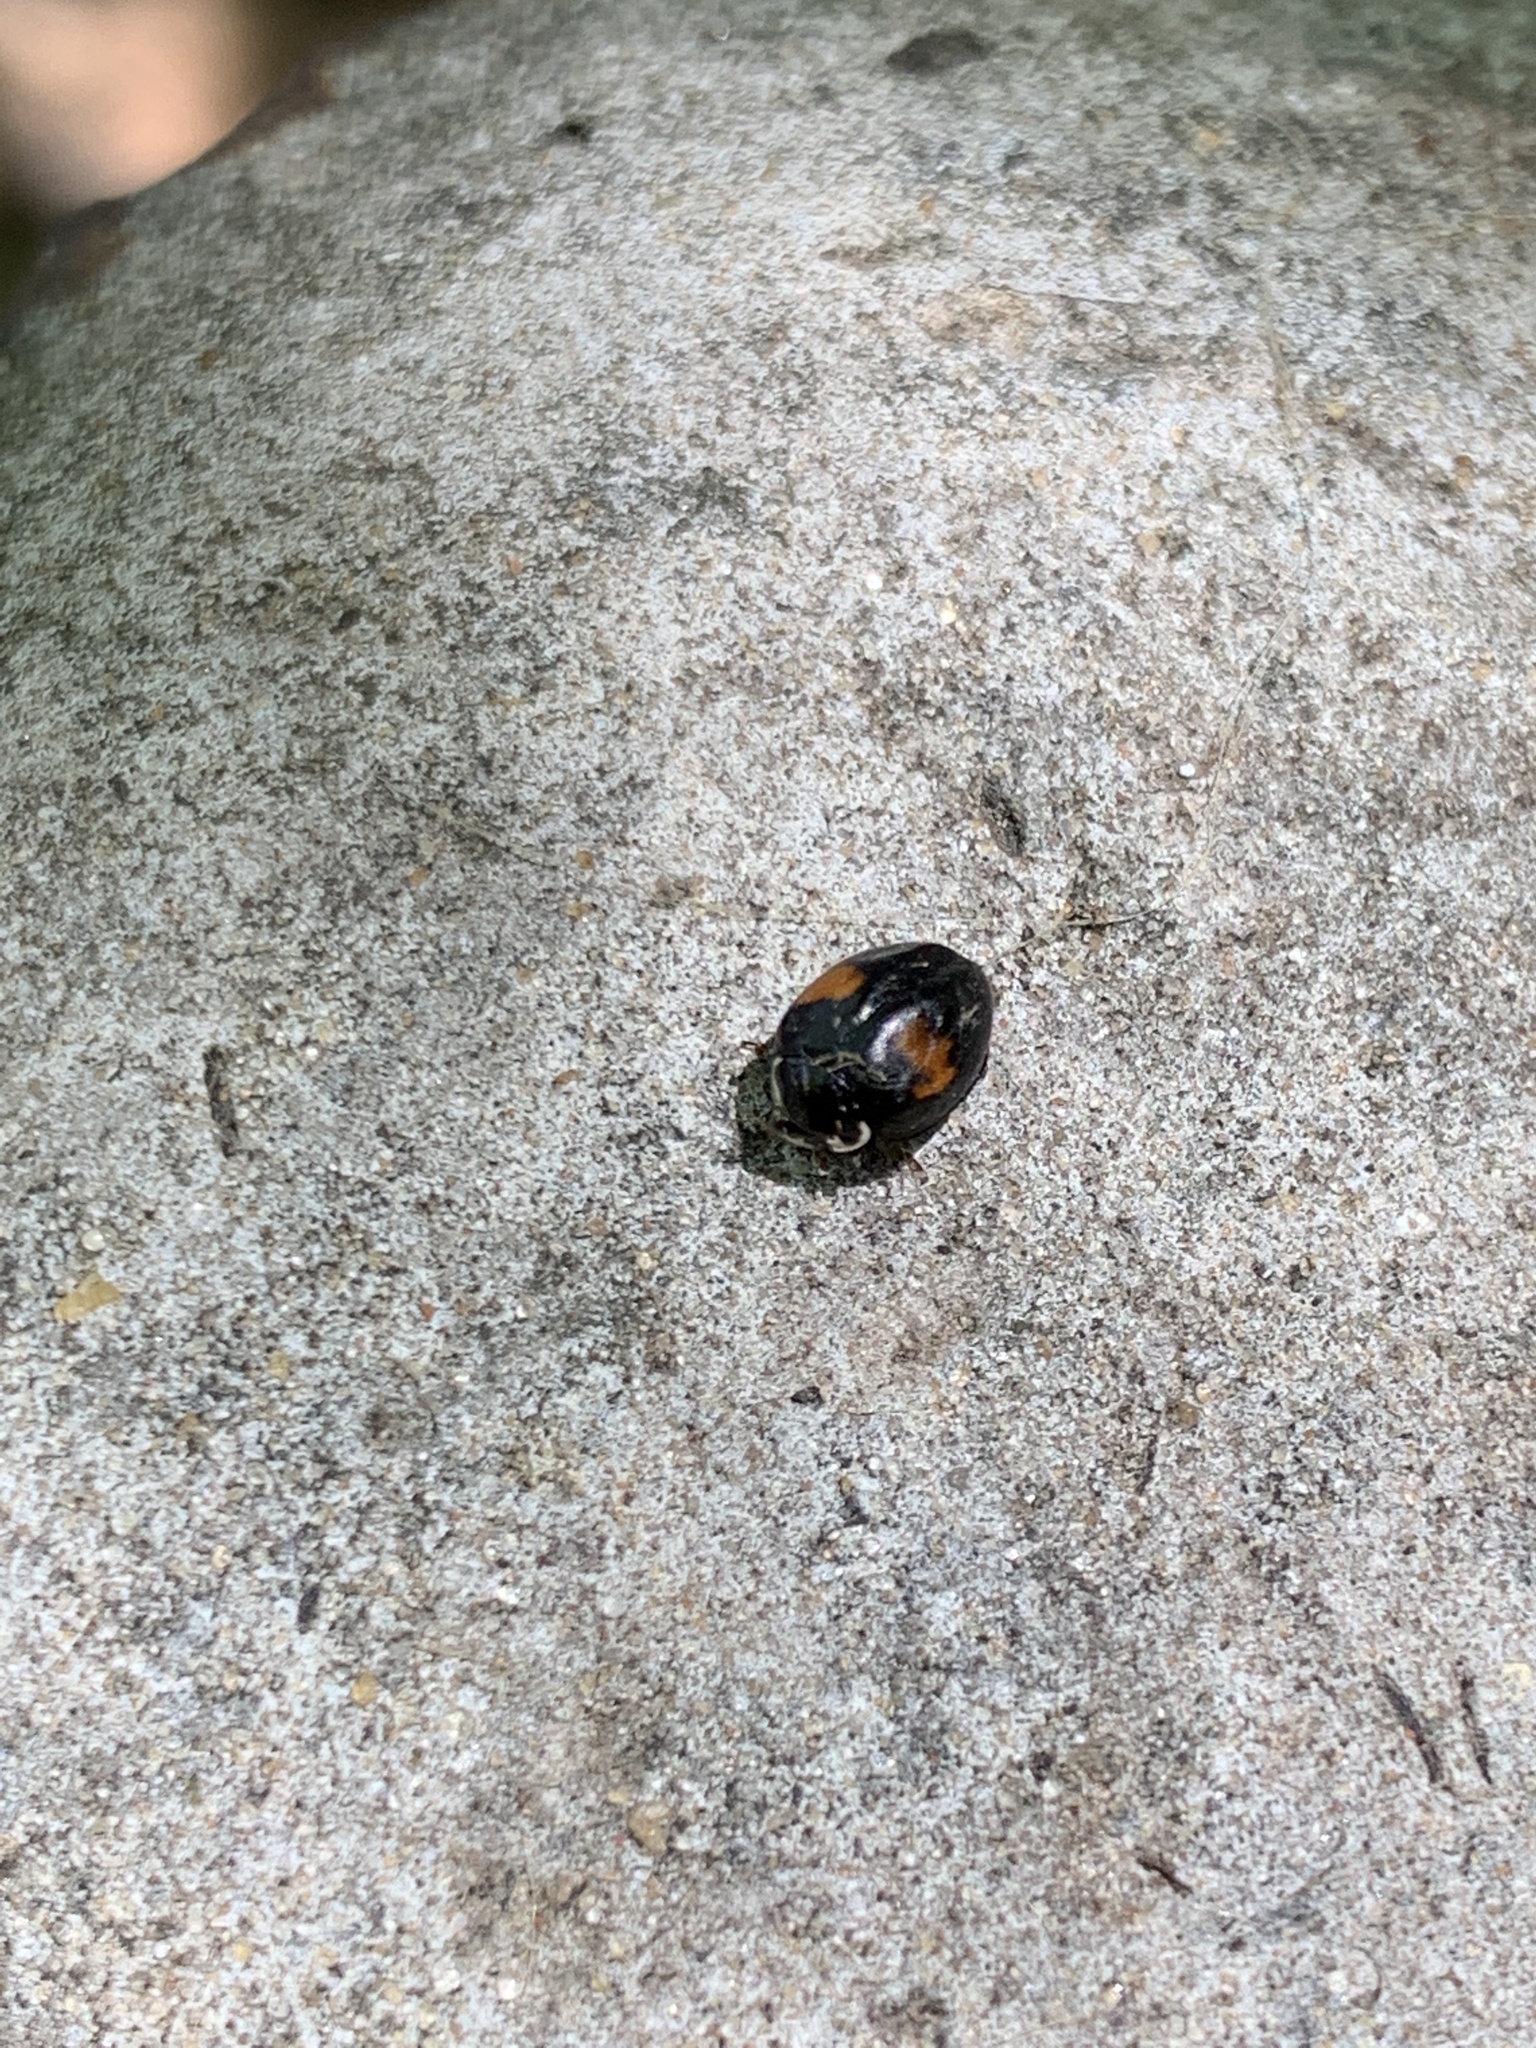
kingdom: Animalia
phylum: Arthropoda
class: Insecta
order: Coleoptera
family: Coccinellidae
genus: Olla
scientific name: Olla v-nigrum
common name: Ashy gray lady beetle
